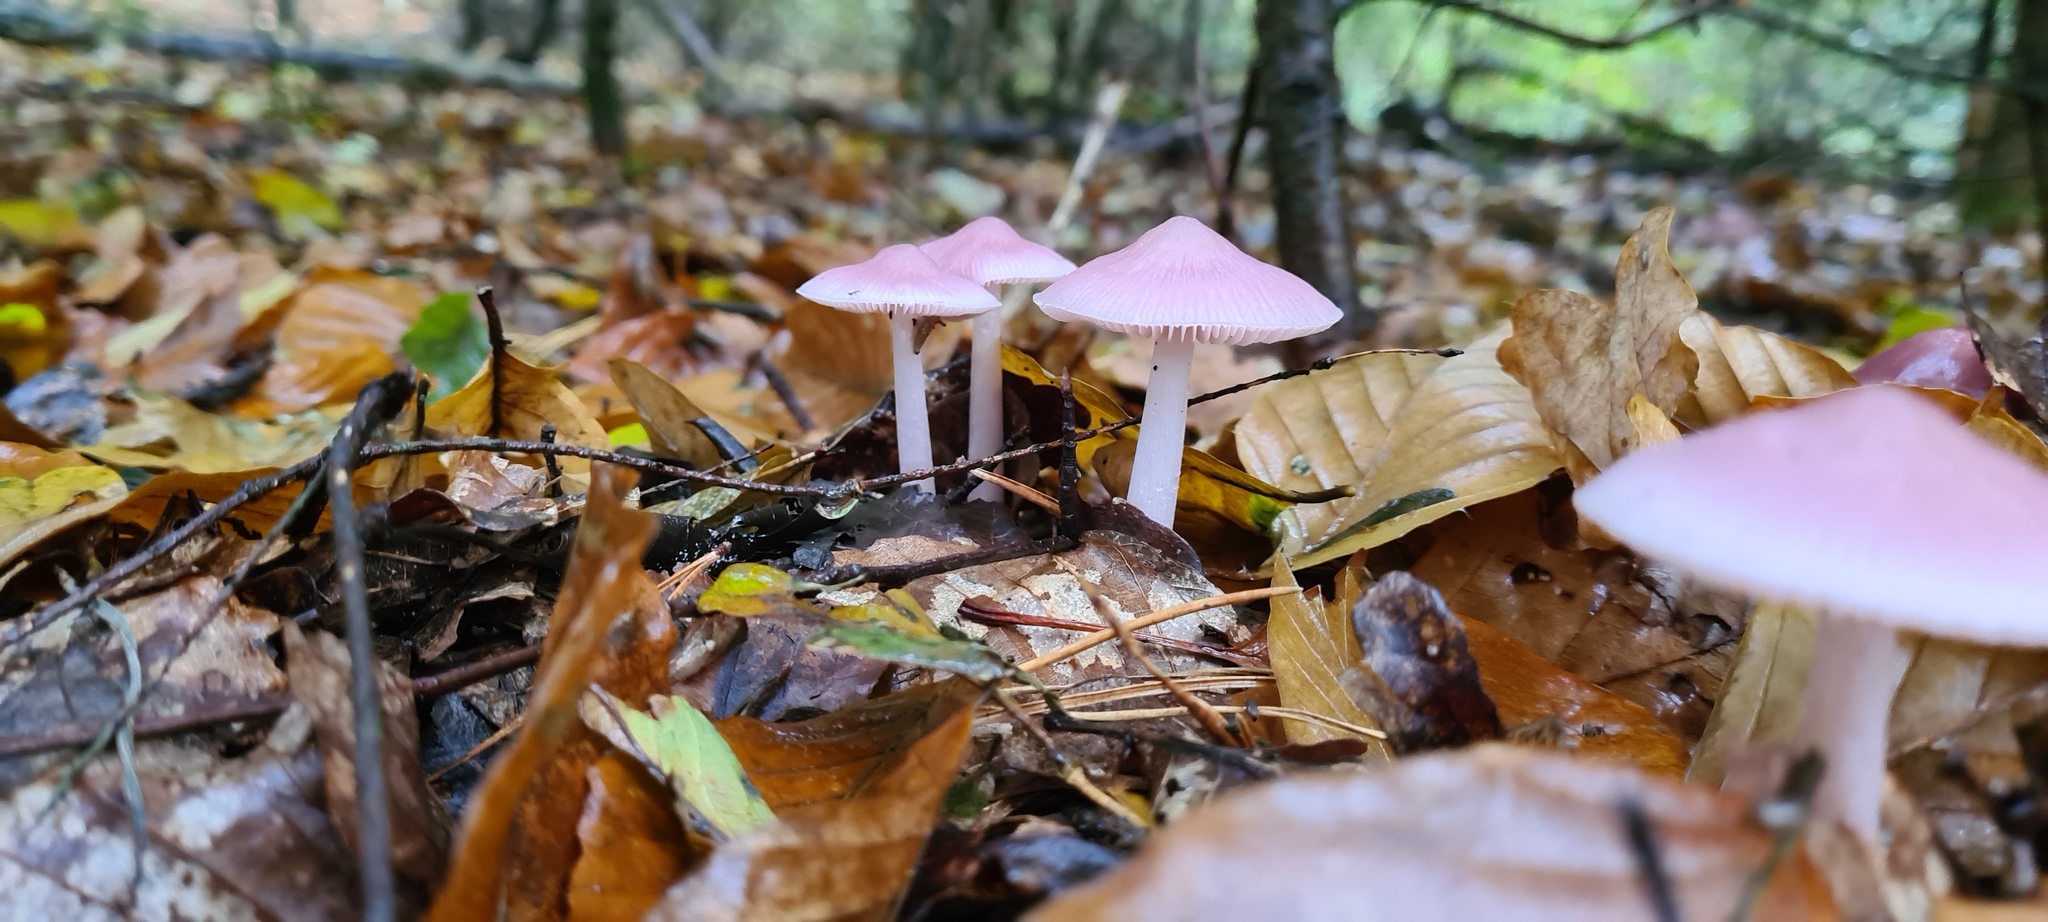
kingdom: Fungi
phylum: Basidiomycota
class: Agaricomycetes
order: Agaricales
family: Mycenaceae
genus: Mycena
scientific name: Mycena rosea
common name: Rosy bonnet
